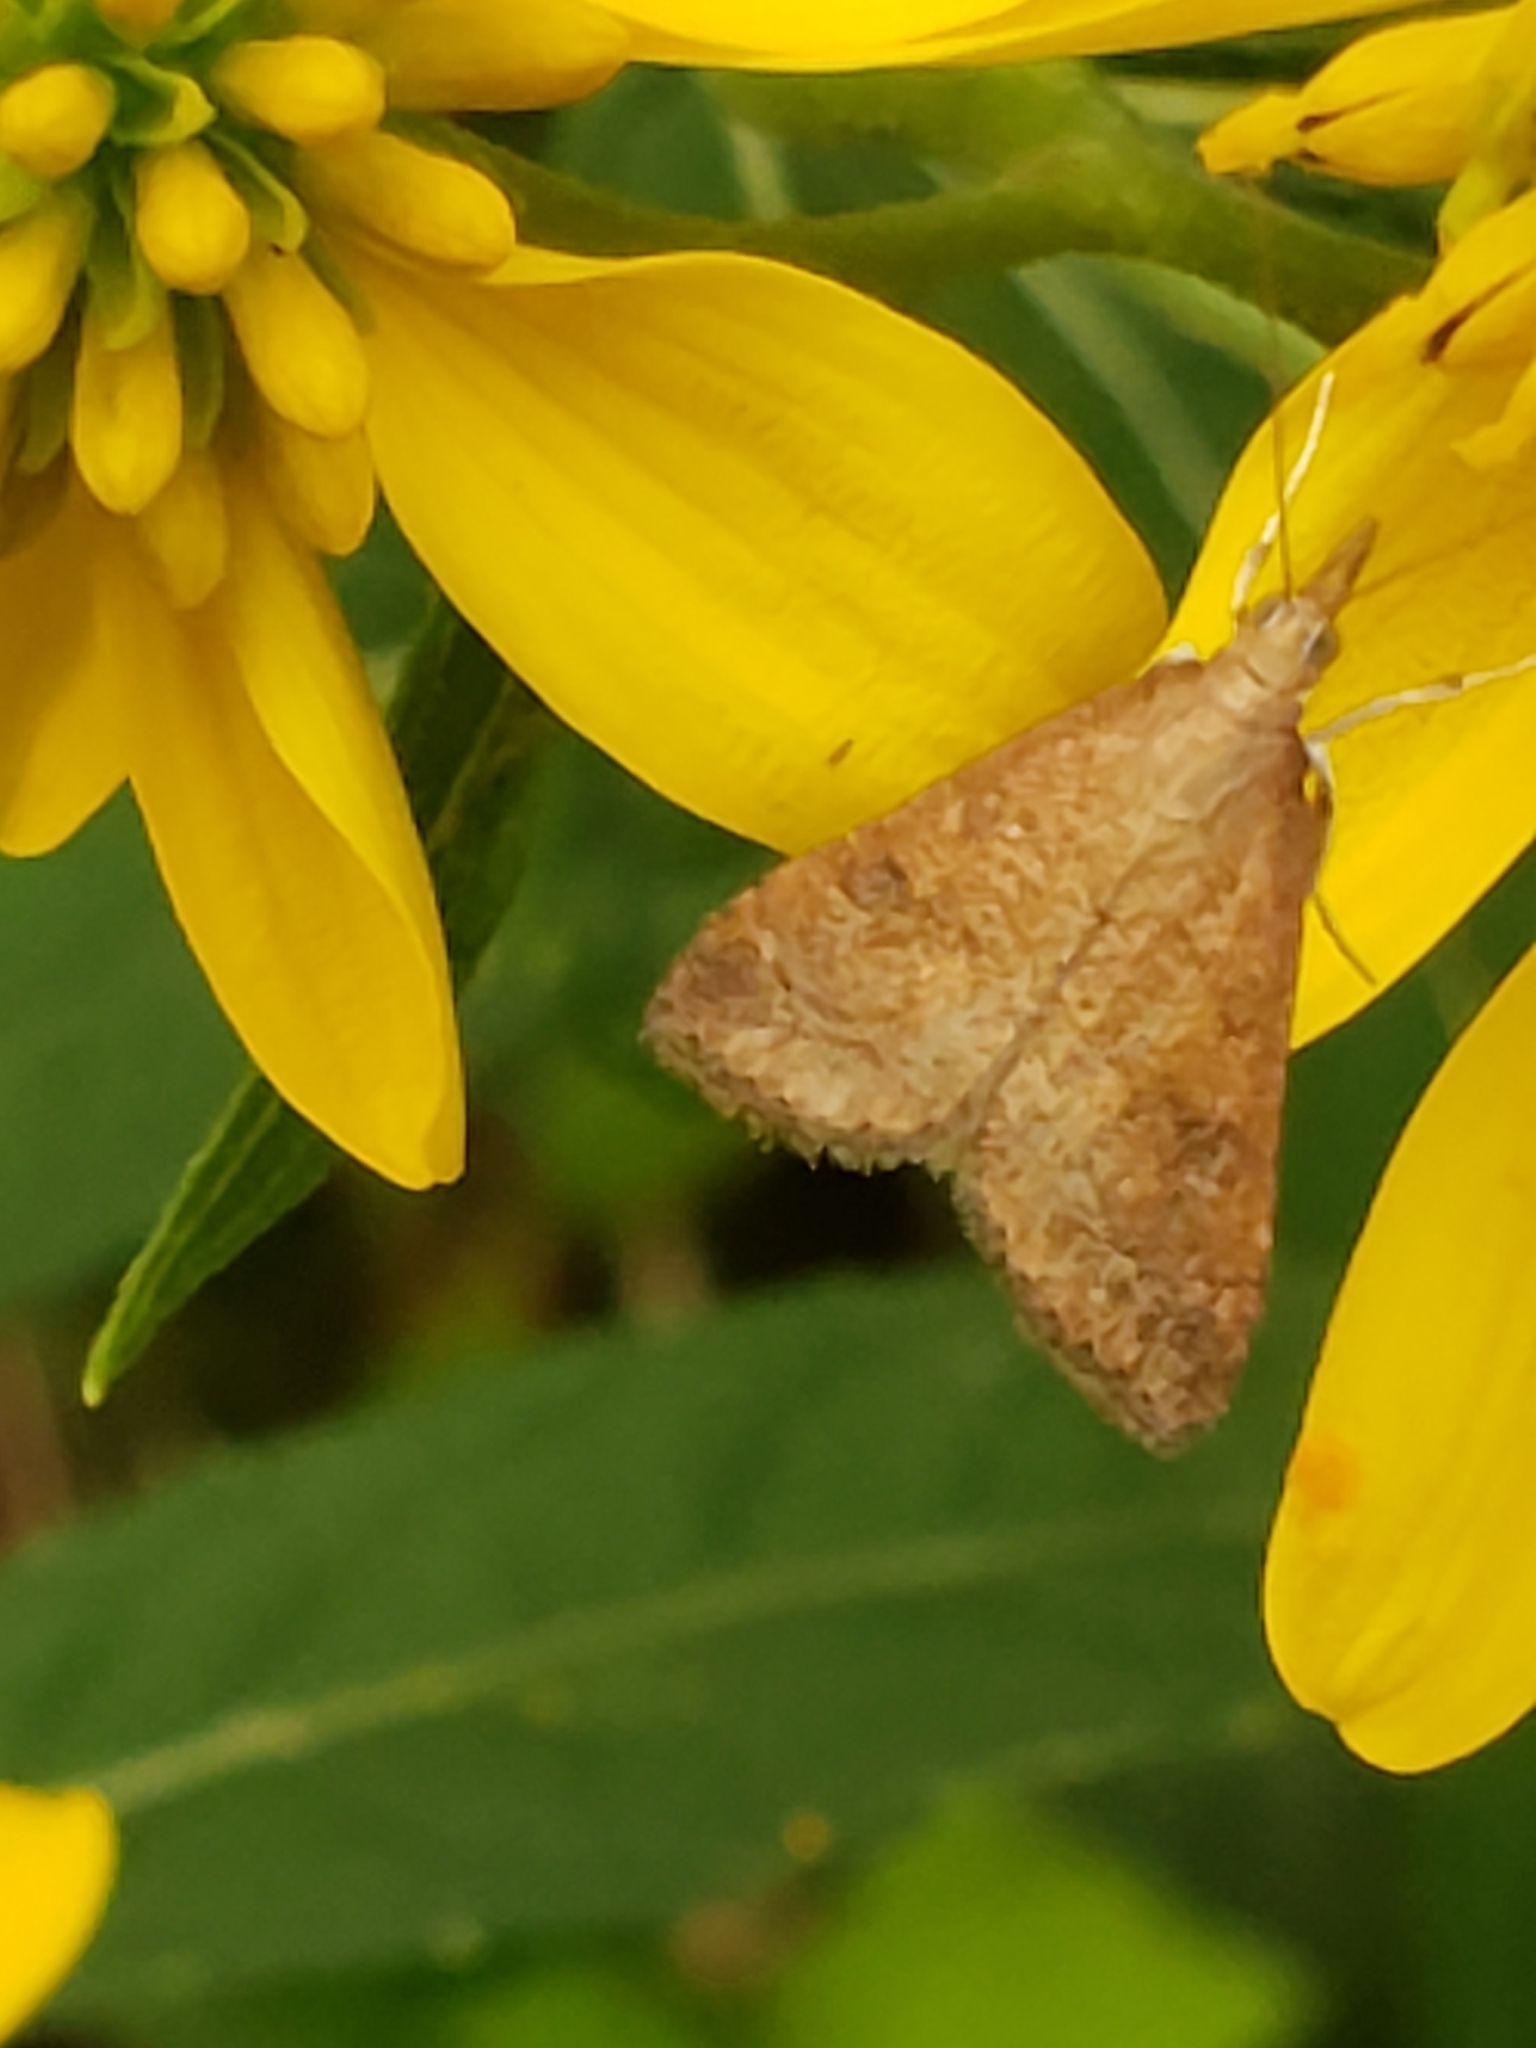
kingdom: Animalia
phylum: Arthropoda
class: Insecta
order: Lepidoptera
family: Crambidae
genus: Udea
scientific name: Udea rubigalis
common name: Celery leaftier moth
